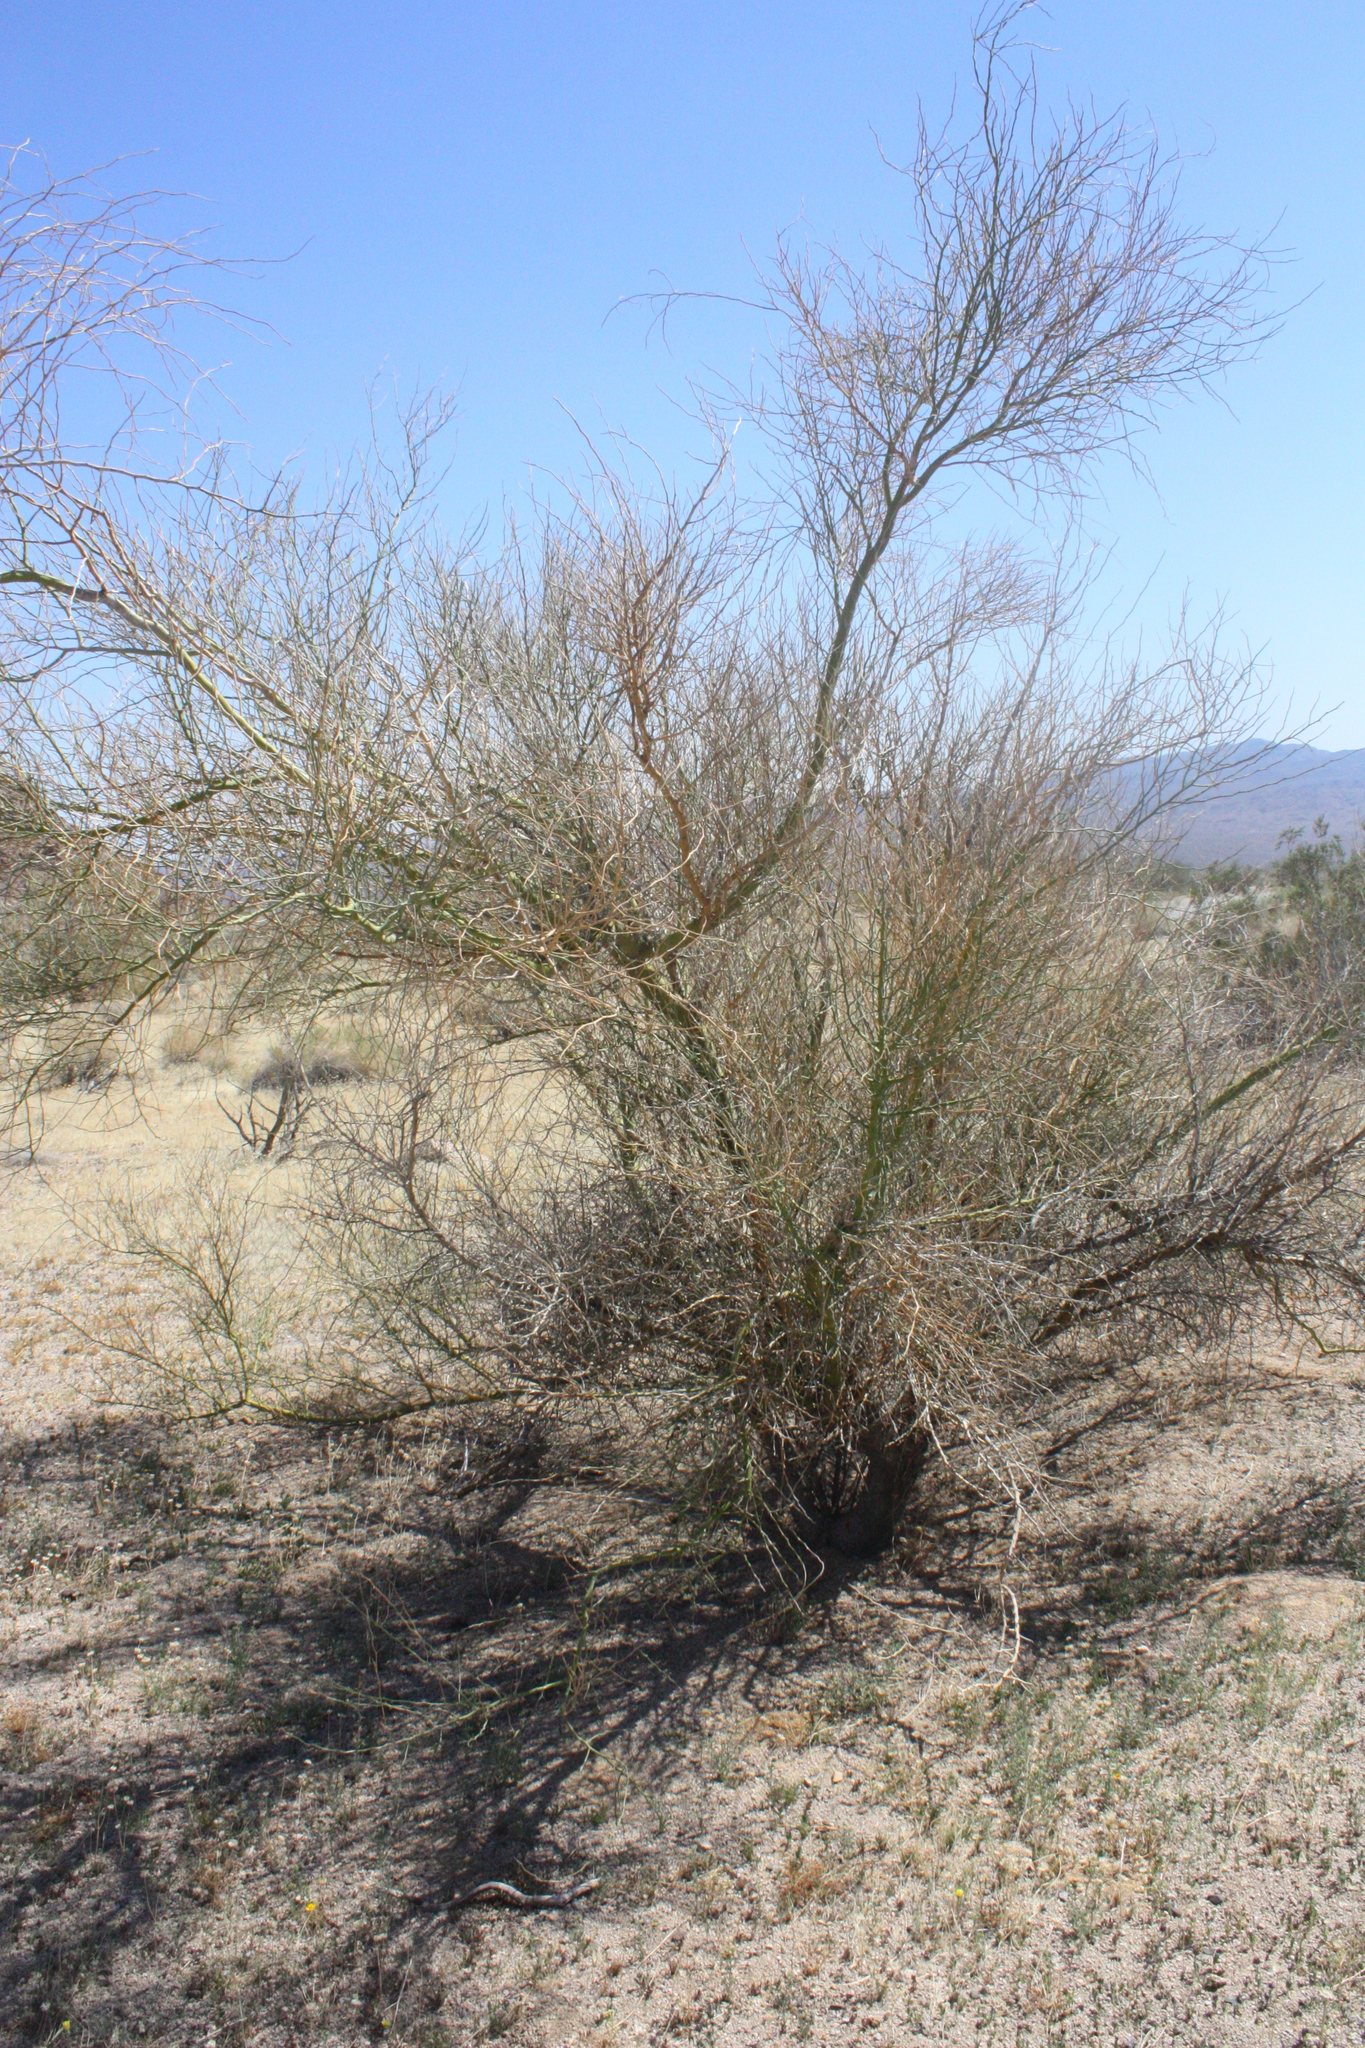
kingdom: Plantae
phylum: Tracheophyta
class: Magnoliopsida
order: Fabales
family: Fabaceae
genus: Parkinsonia
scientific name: Parkinsonia florida
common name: Blue paloverde
